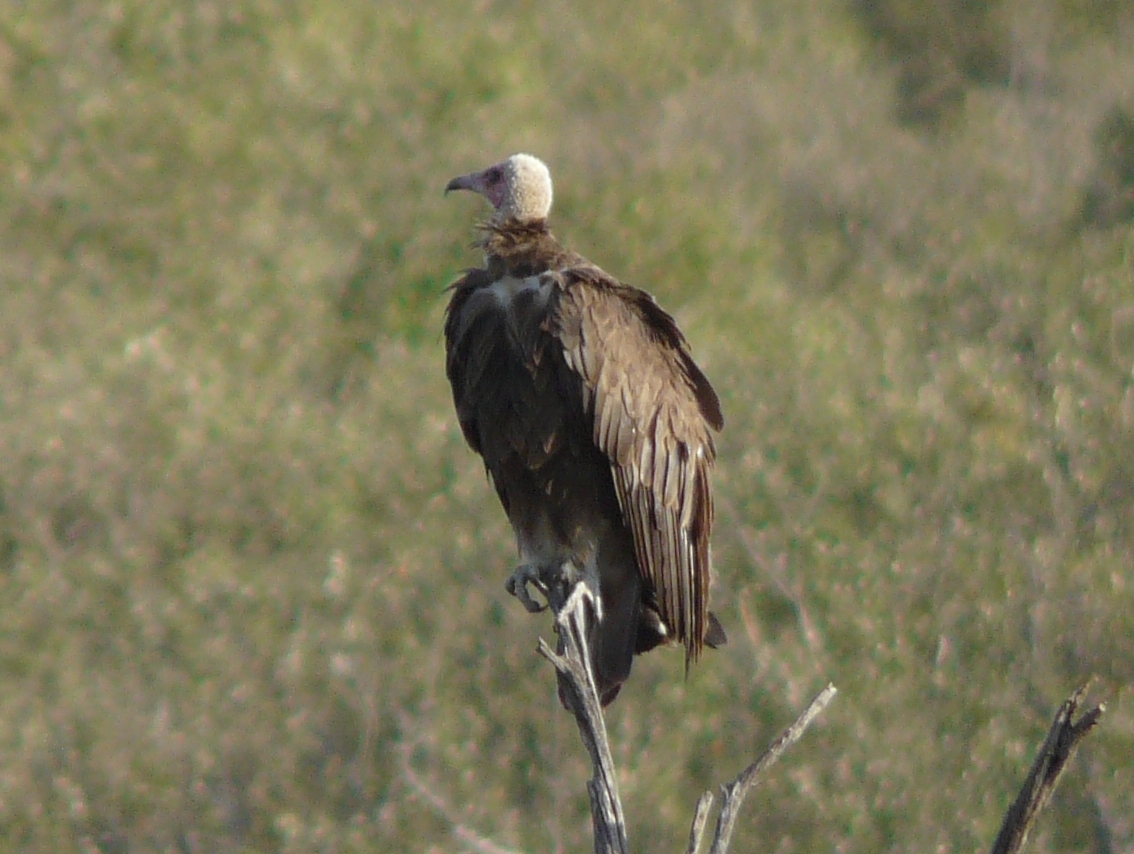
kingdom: Animalia
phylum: Chordata
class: Aves
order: Accipitriformes
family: Accipitridae
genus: Necrosyrtes
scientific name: Necrosyrtes monachus
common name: Hooded vulture
